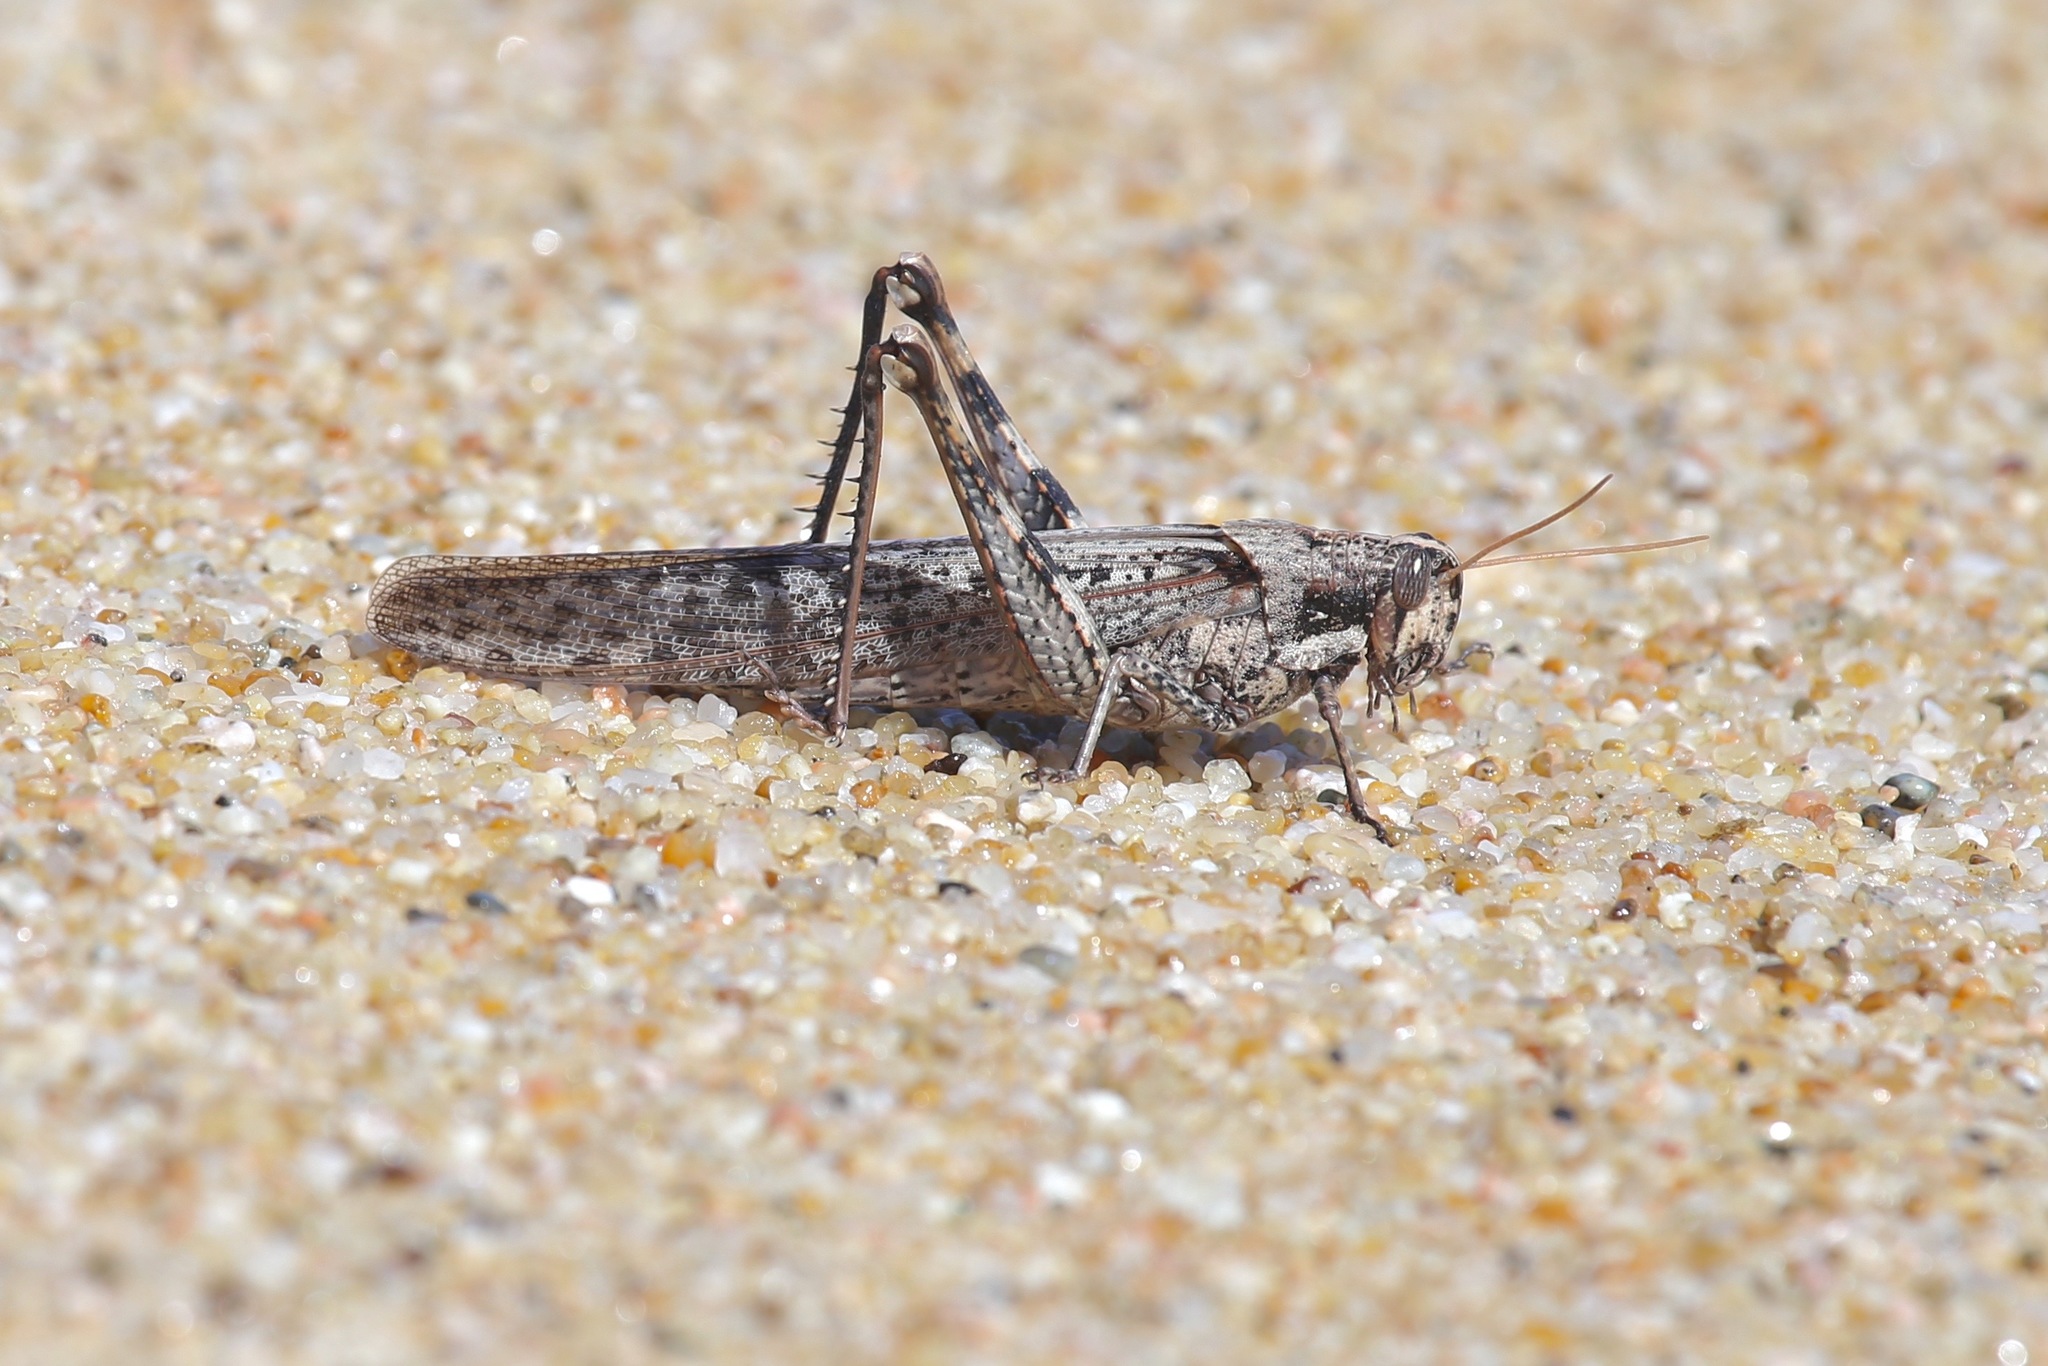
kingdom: Animalia
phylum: Arthropoda
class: Insecta
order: Orthoptera
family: Acrididae
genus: Schistocerca
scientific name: Schistocerca nitens
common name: Vagrant grasshopper
